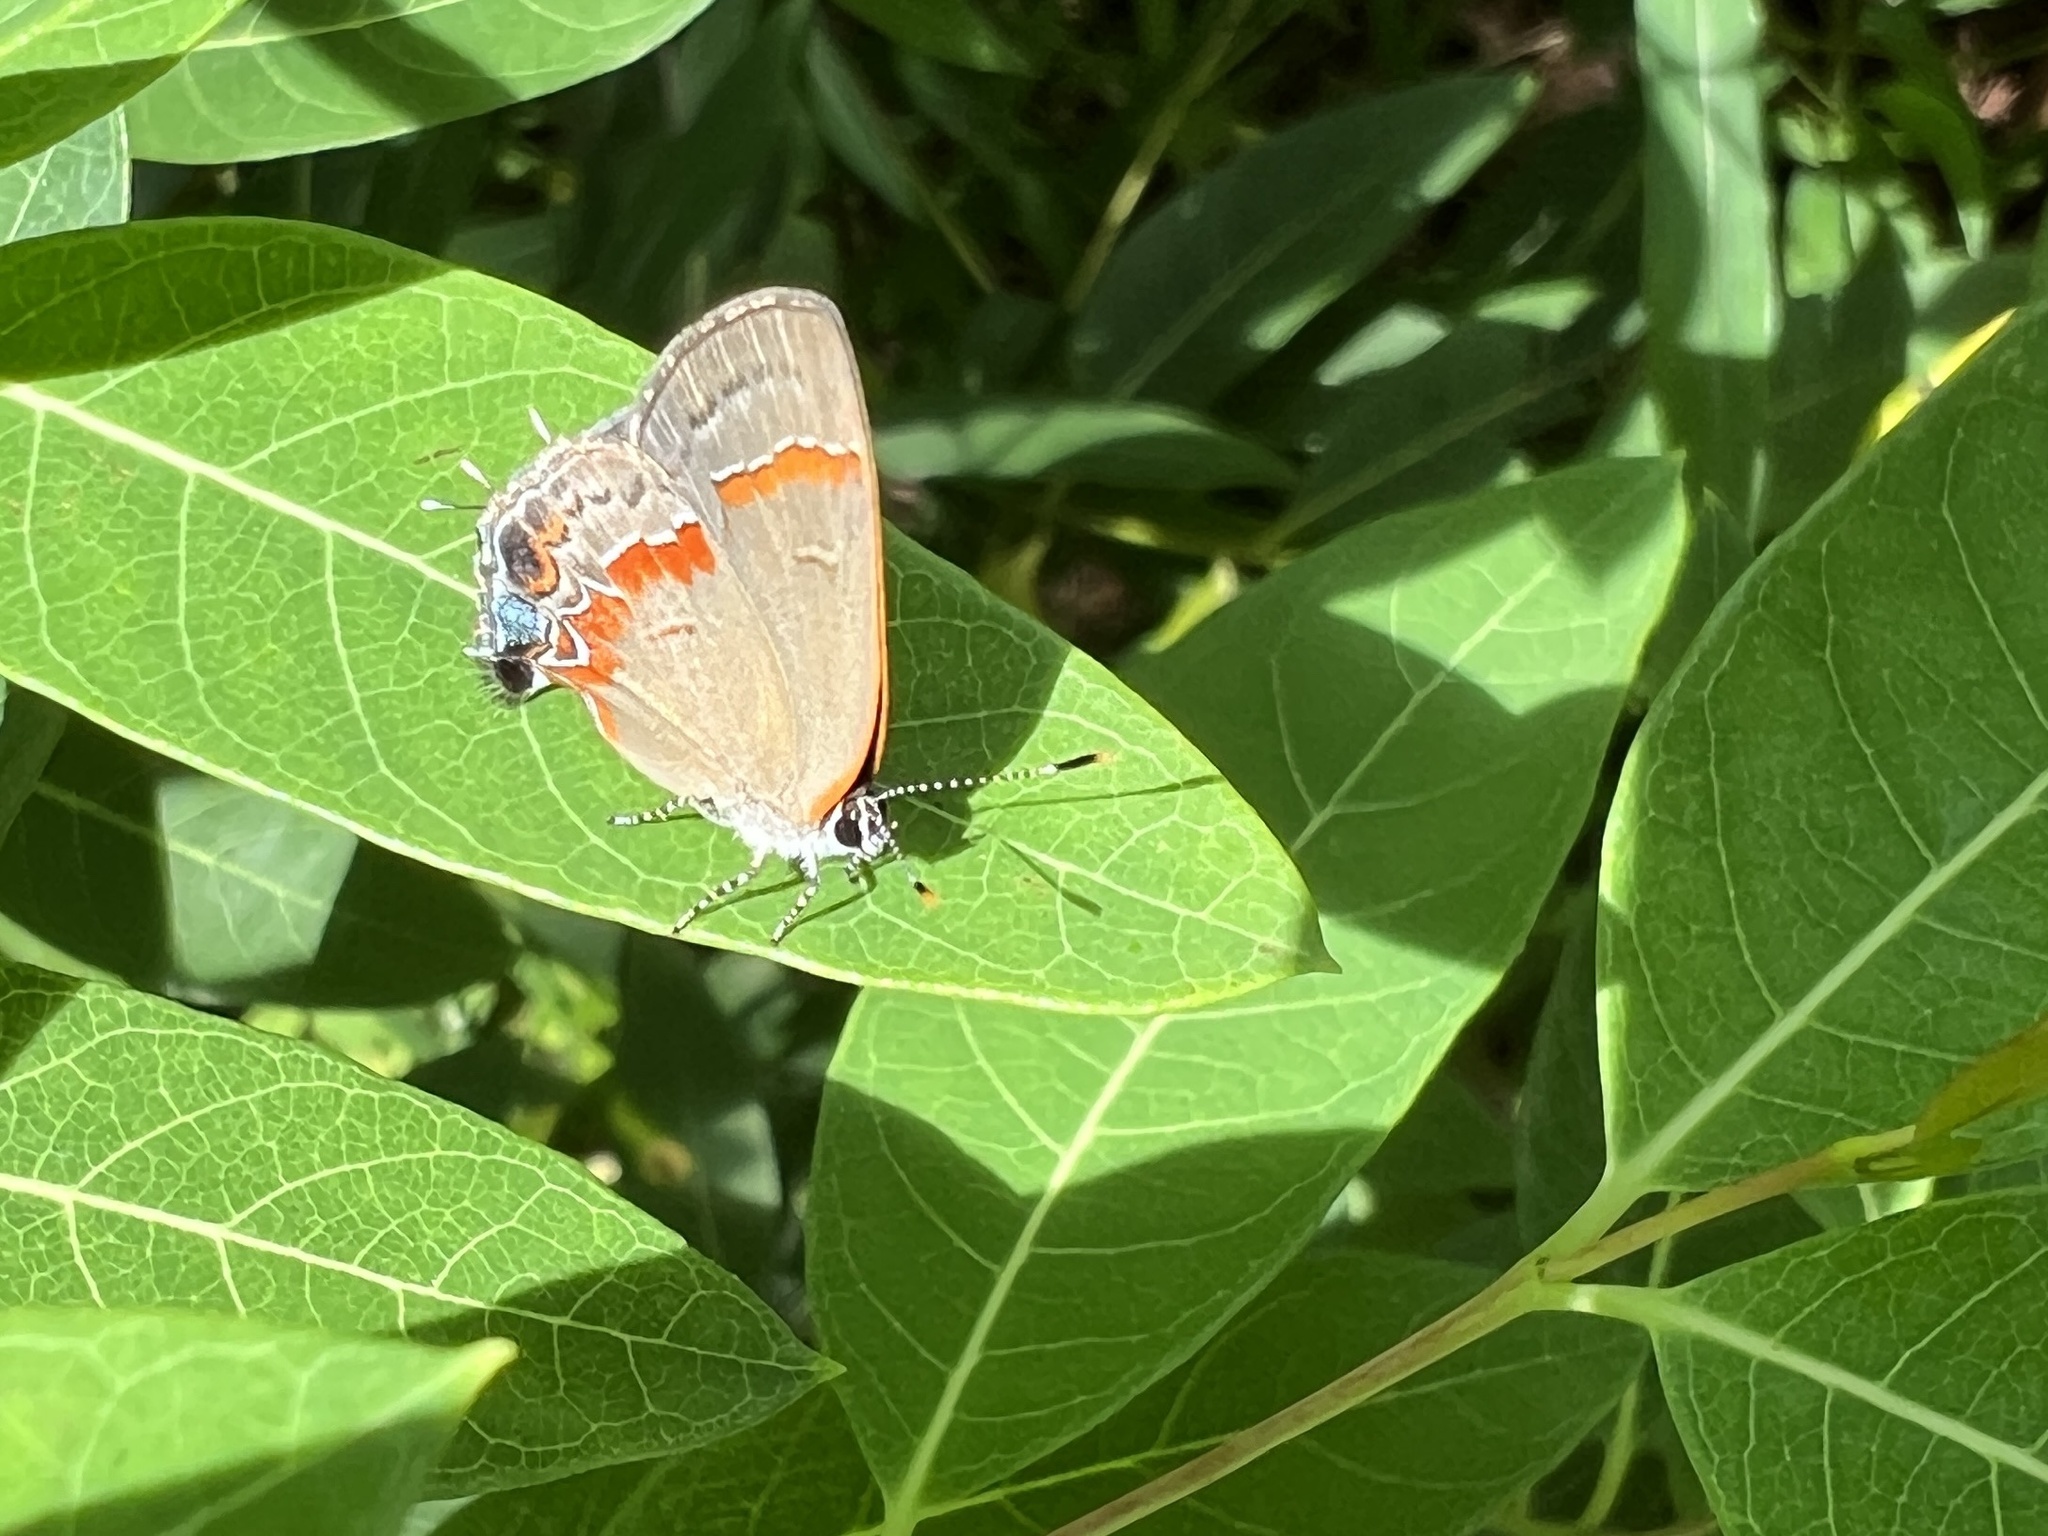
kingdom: Animalia
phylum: Arthropoda
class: Insecta
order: Lepidoptera
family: Lycaenidae
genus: Calycopis
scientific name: Calycopis cecrops
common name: Red-banded hairstreak
